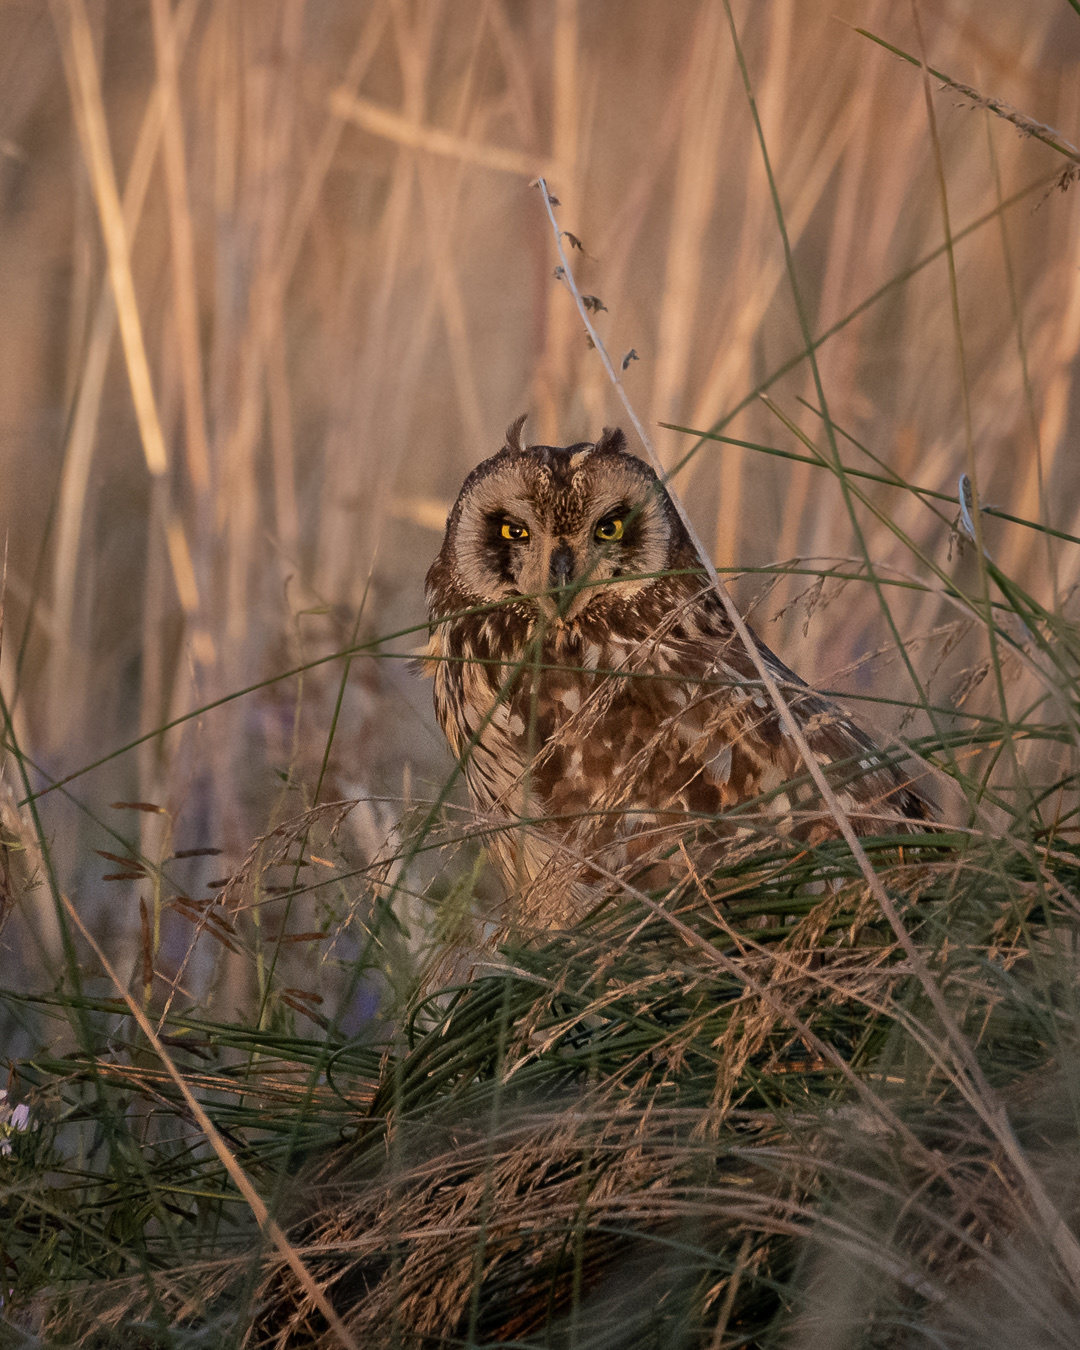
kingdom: Animalia
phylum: Chordata
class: Aves
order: Strigiformes
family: Strigidae
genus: Asio
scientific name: Asio flammeus
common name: Short-eared owl
